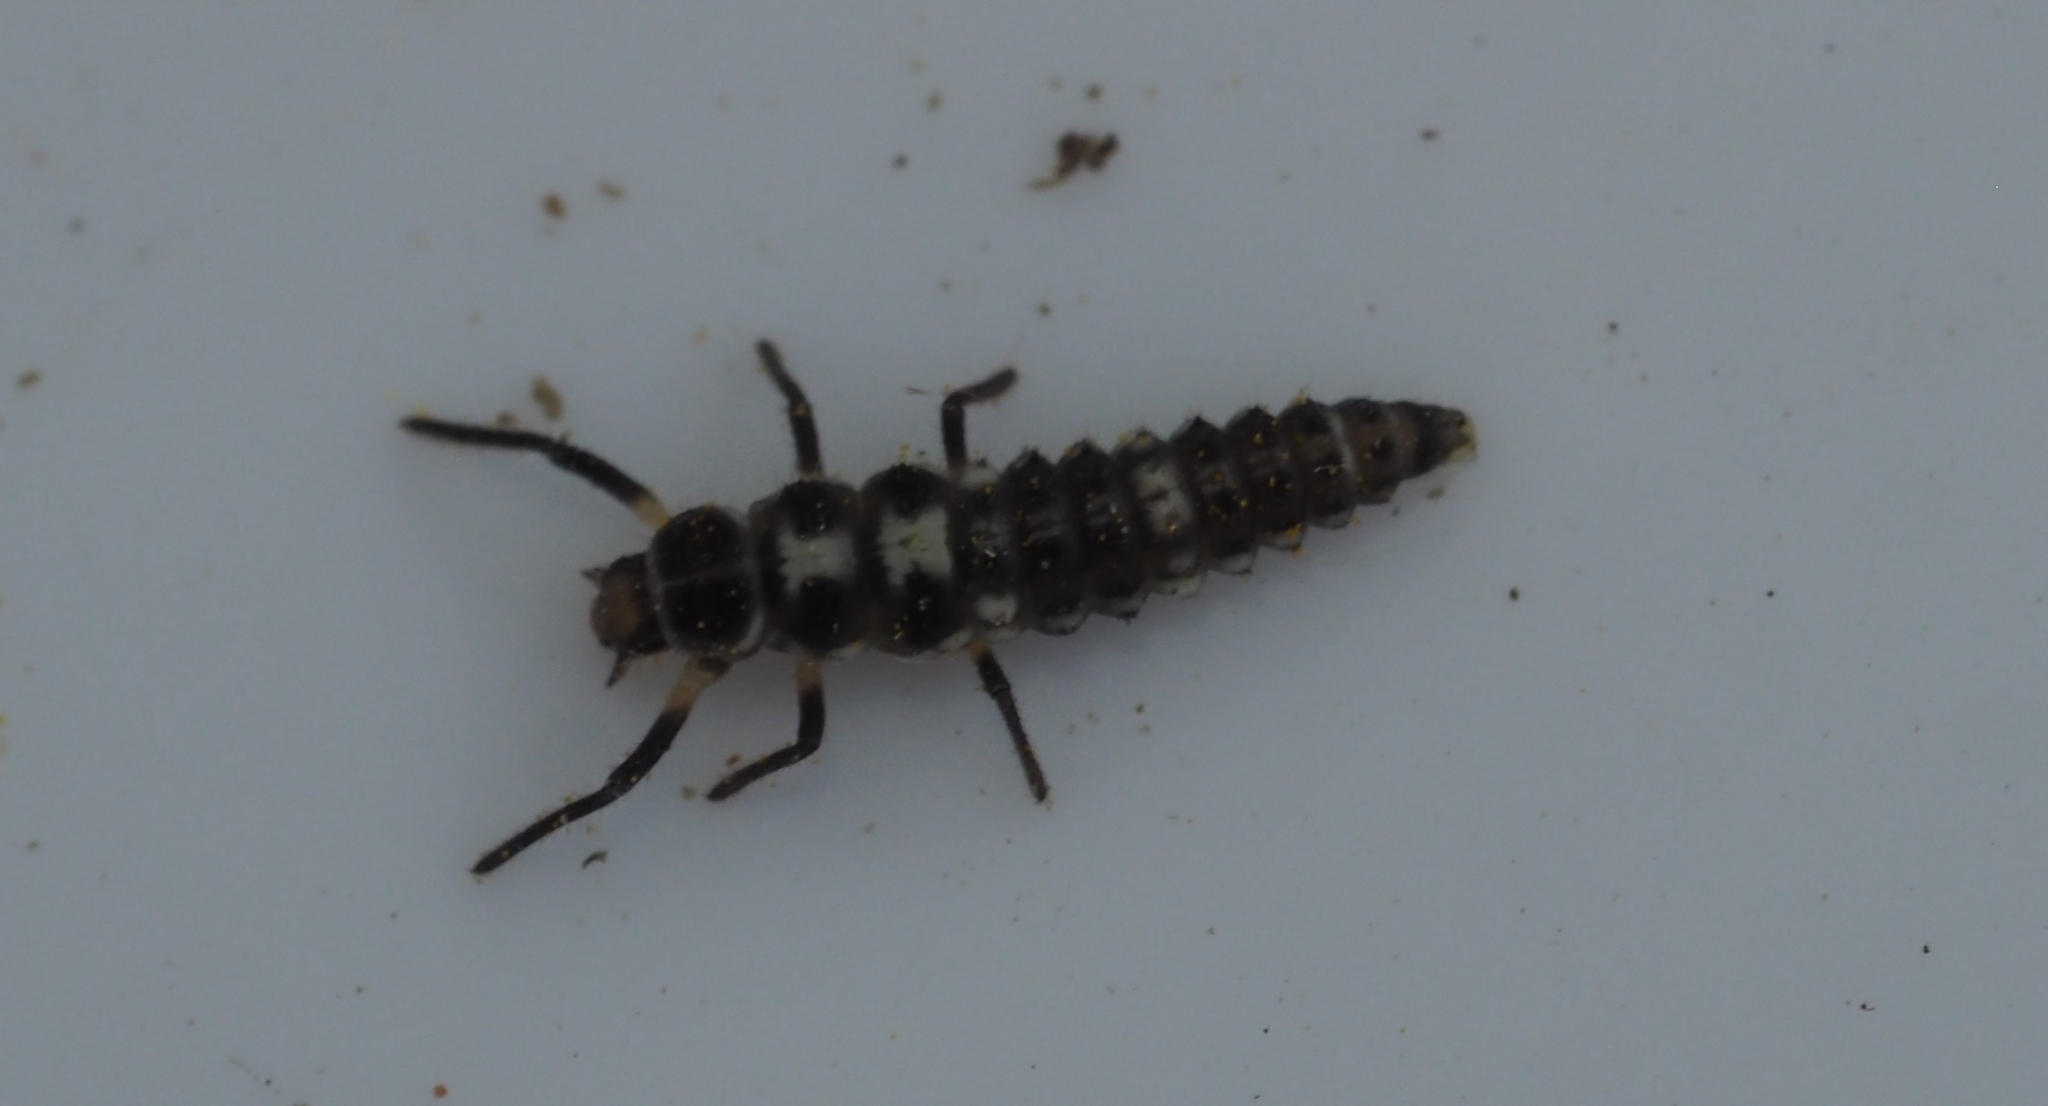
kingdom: Animalia
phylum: Arthropoda
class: Insecta
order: Coleoptera
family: Coccinellidae
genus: Propylaea
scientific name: Propylaea quatuordecimpunctata
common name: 14-spotted ladybird beetle
